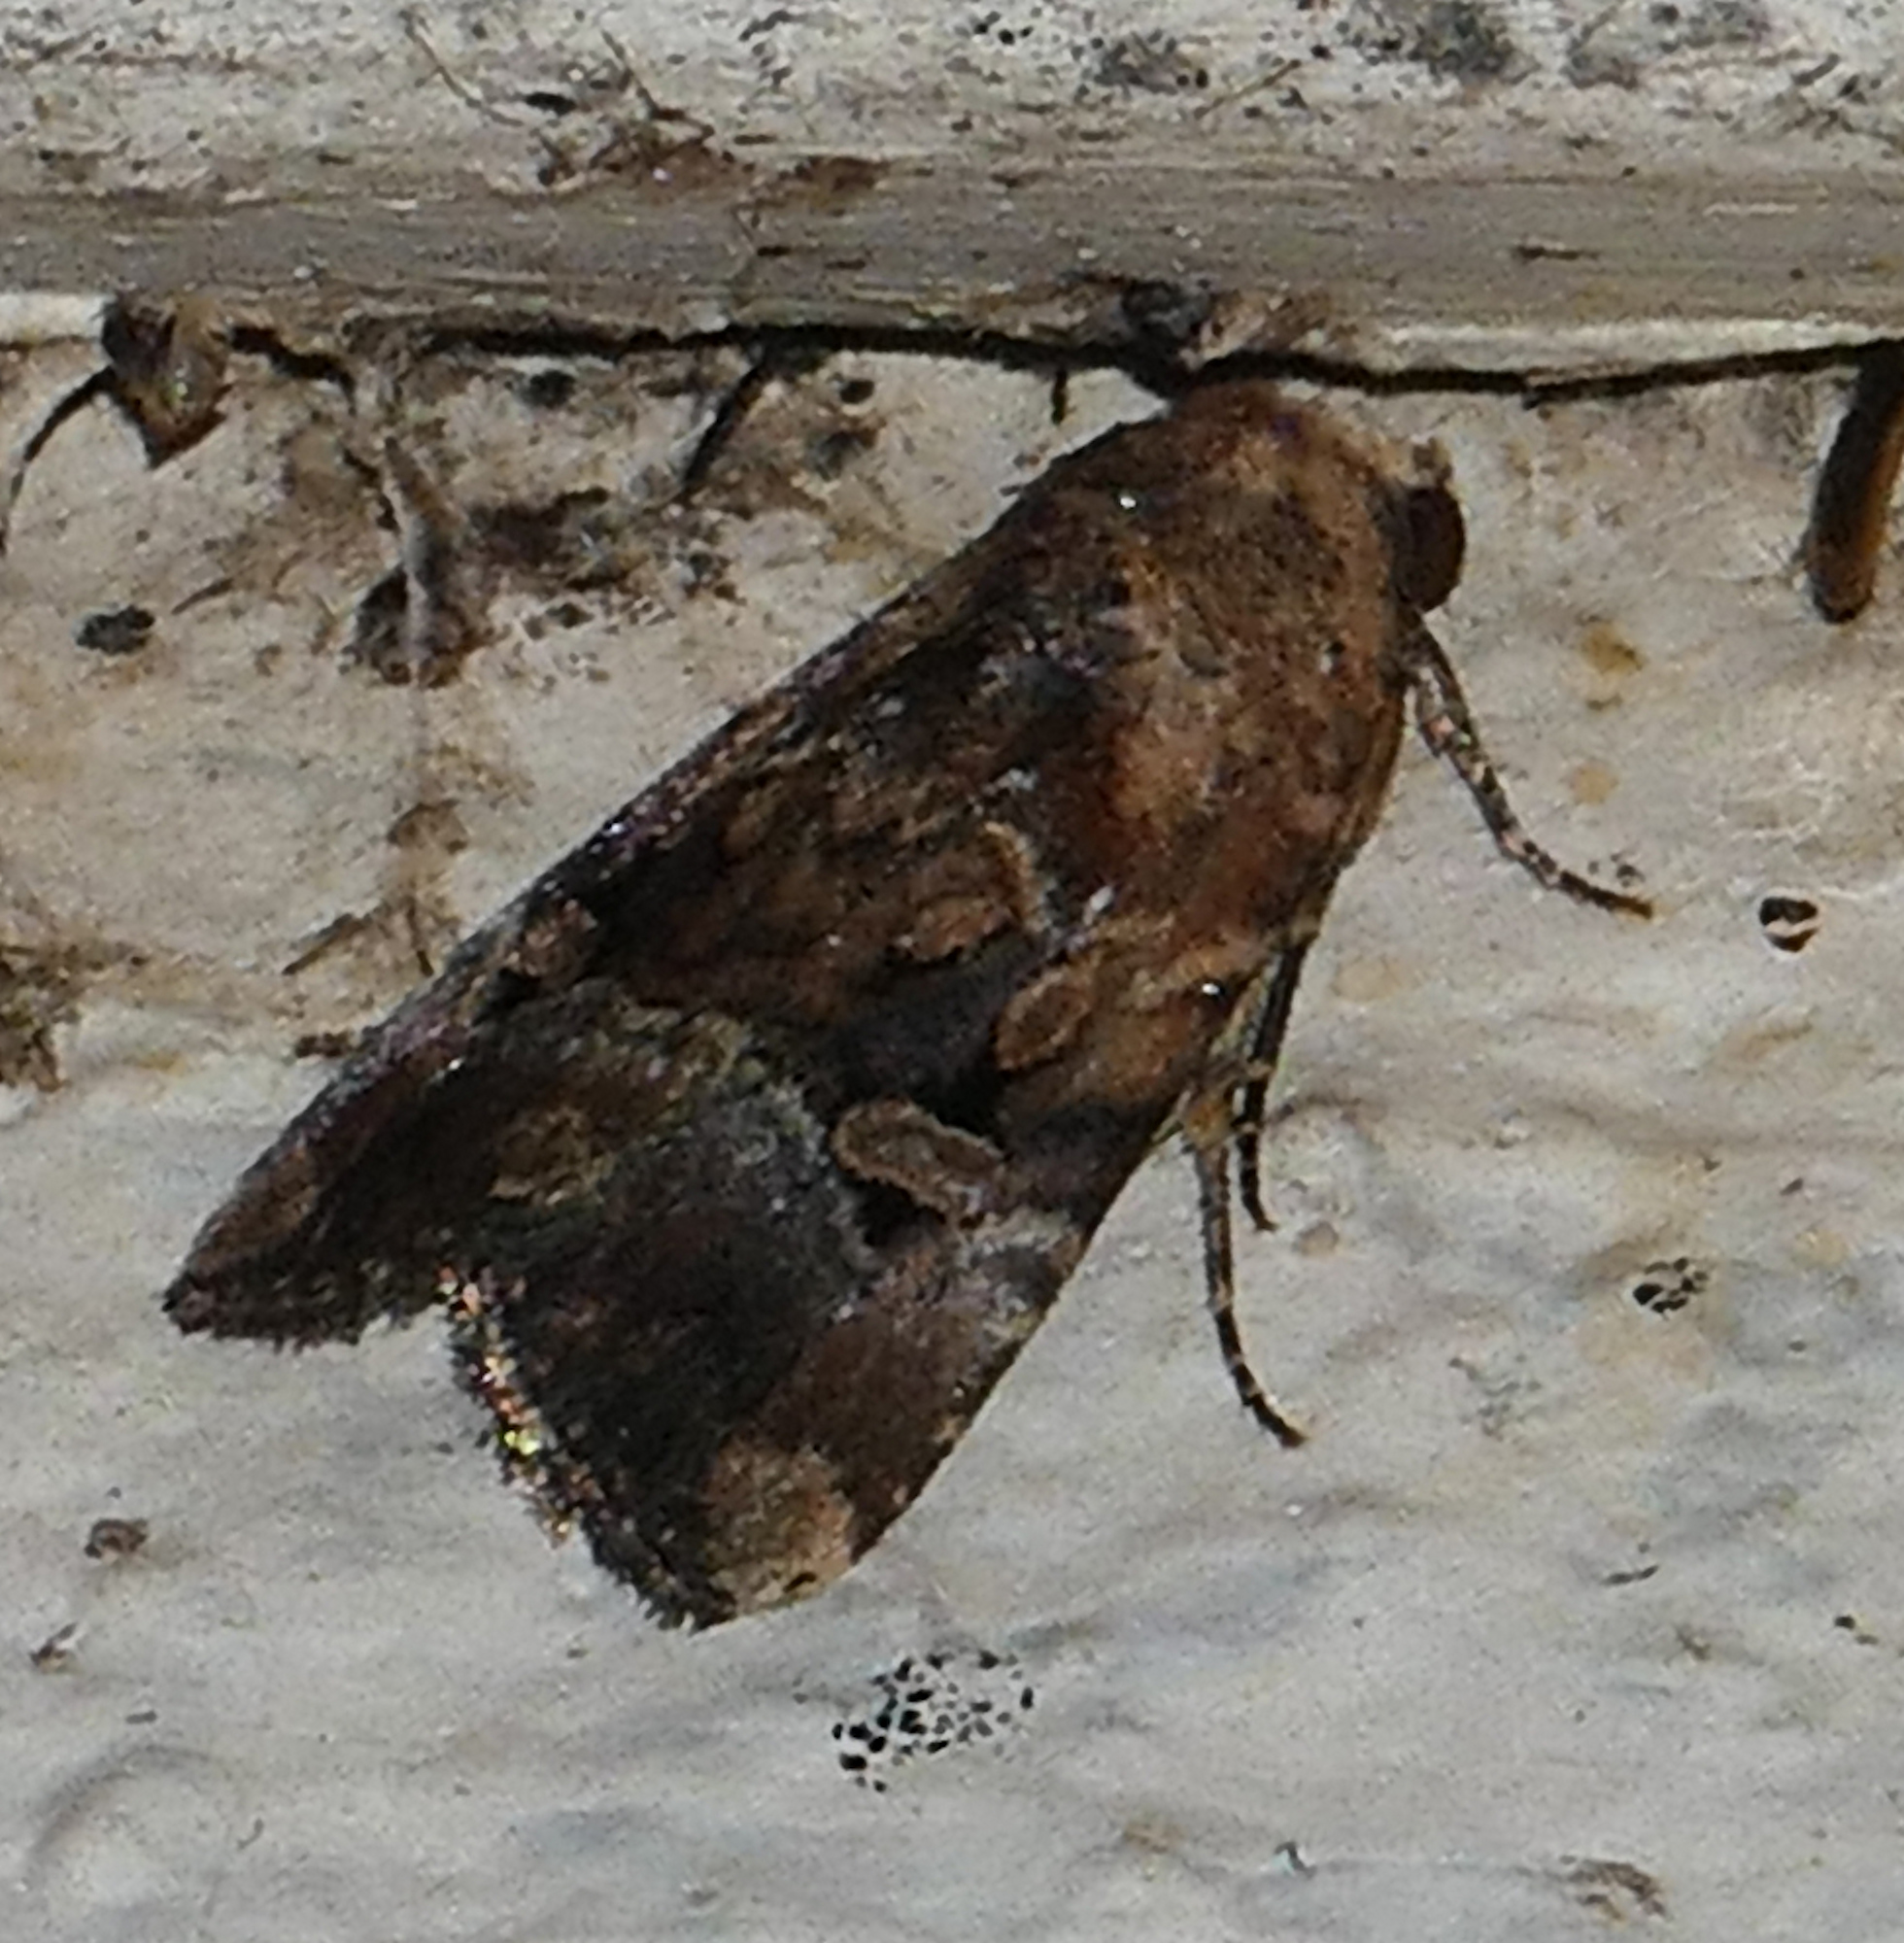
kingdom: Animalia
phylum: Arthropoda
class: Insecta
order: Lepidoptera
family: Noctuidae
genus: Elaphria
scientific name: Elaphria chalcedonia
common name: Chalcedony midget
